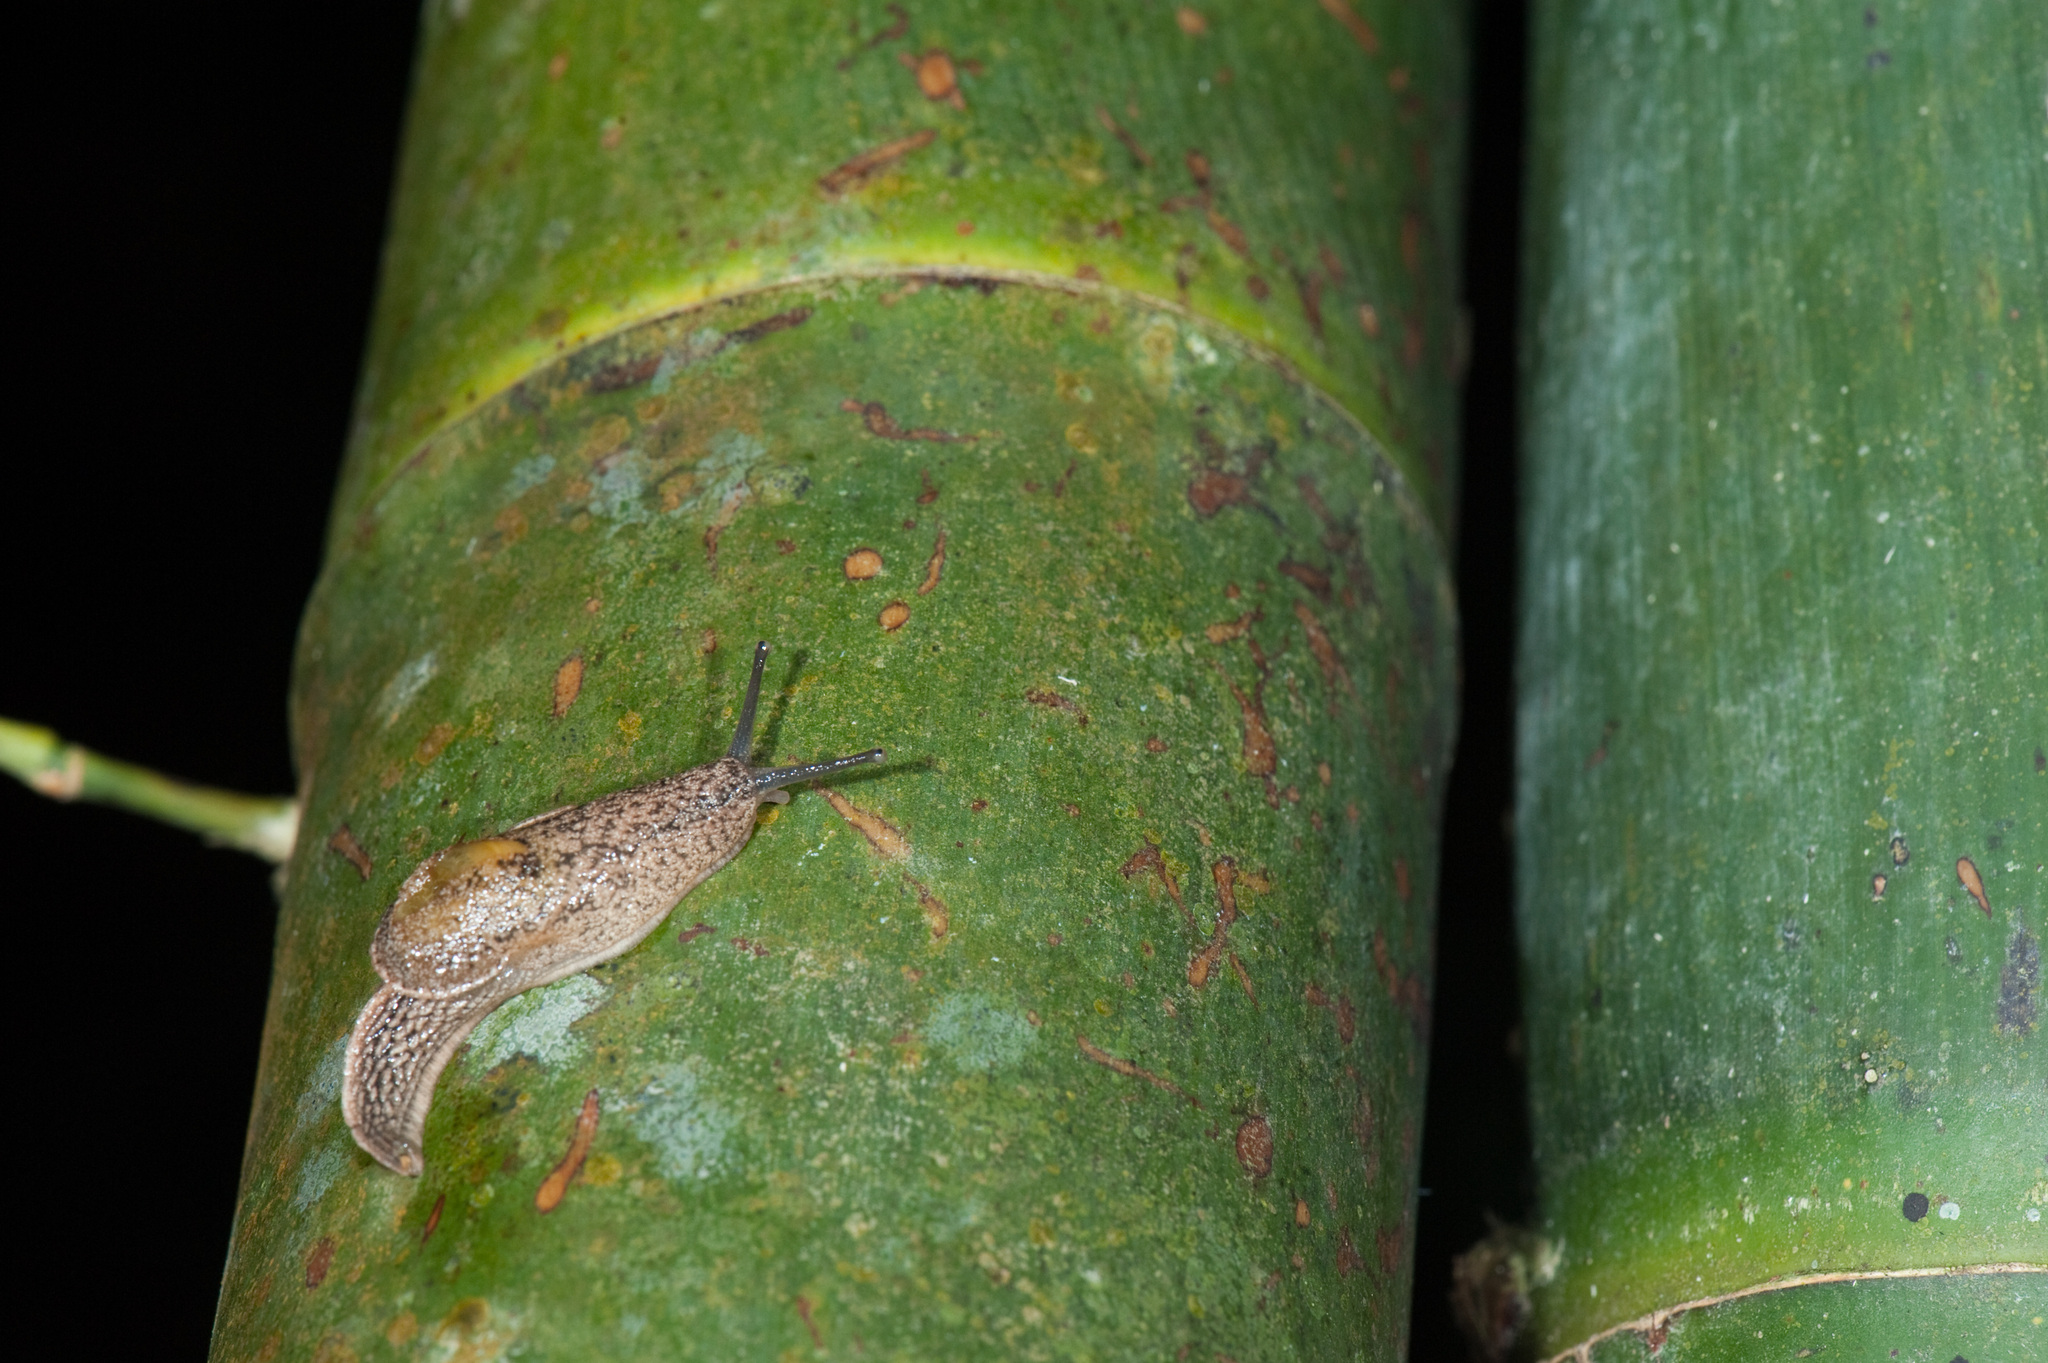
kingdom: Animalia
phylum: Mollusca
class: Gastropoda
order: Stylommatophora
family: Ariophantidae
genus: Parmarion
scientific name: Parmarion martensi
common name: Semi-slug
